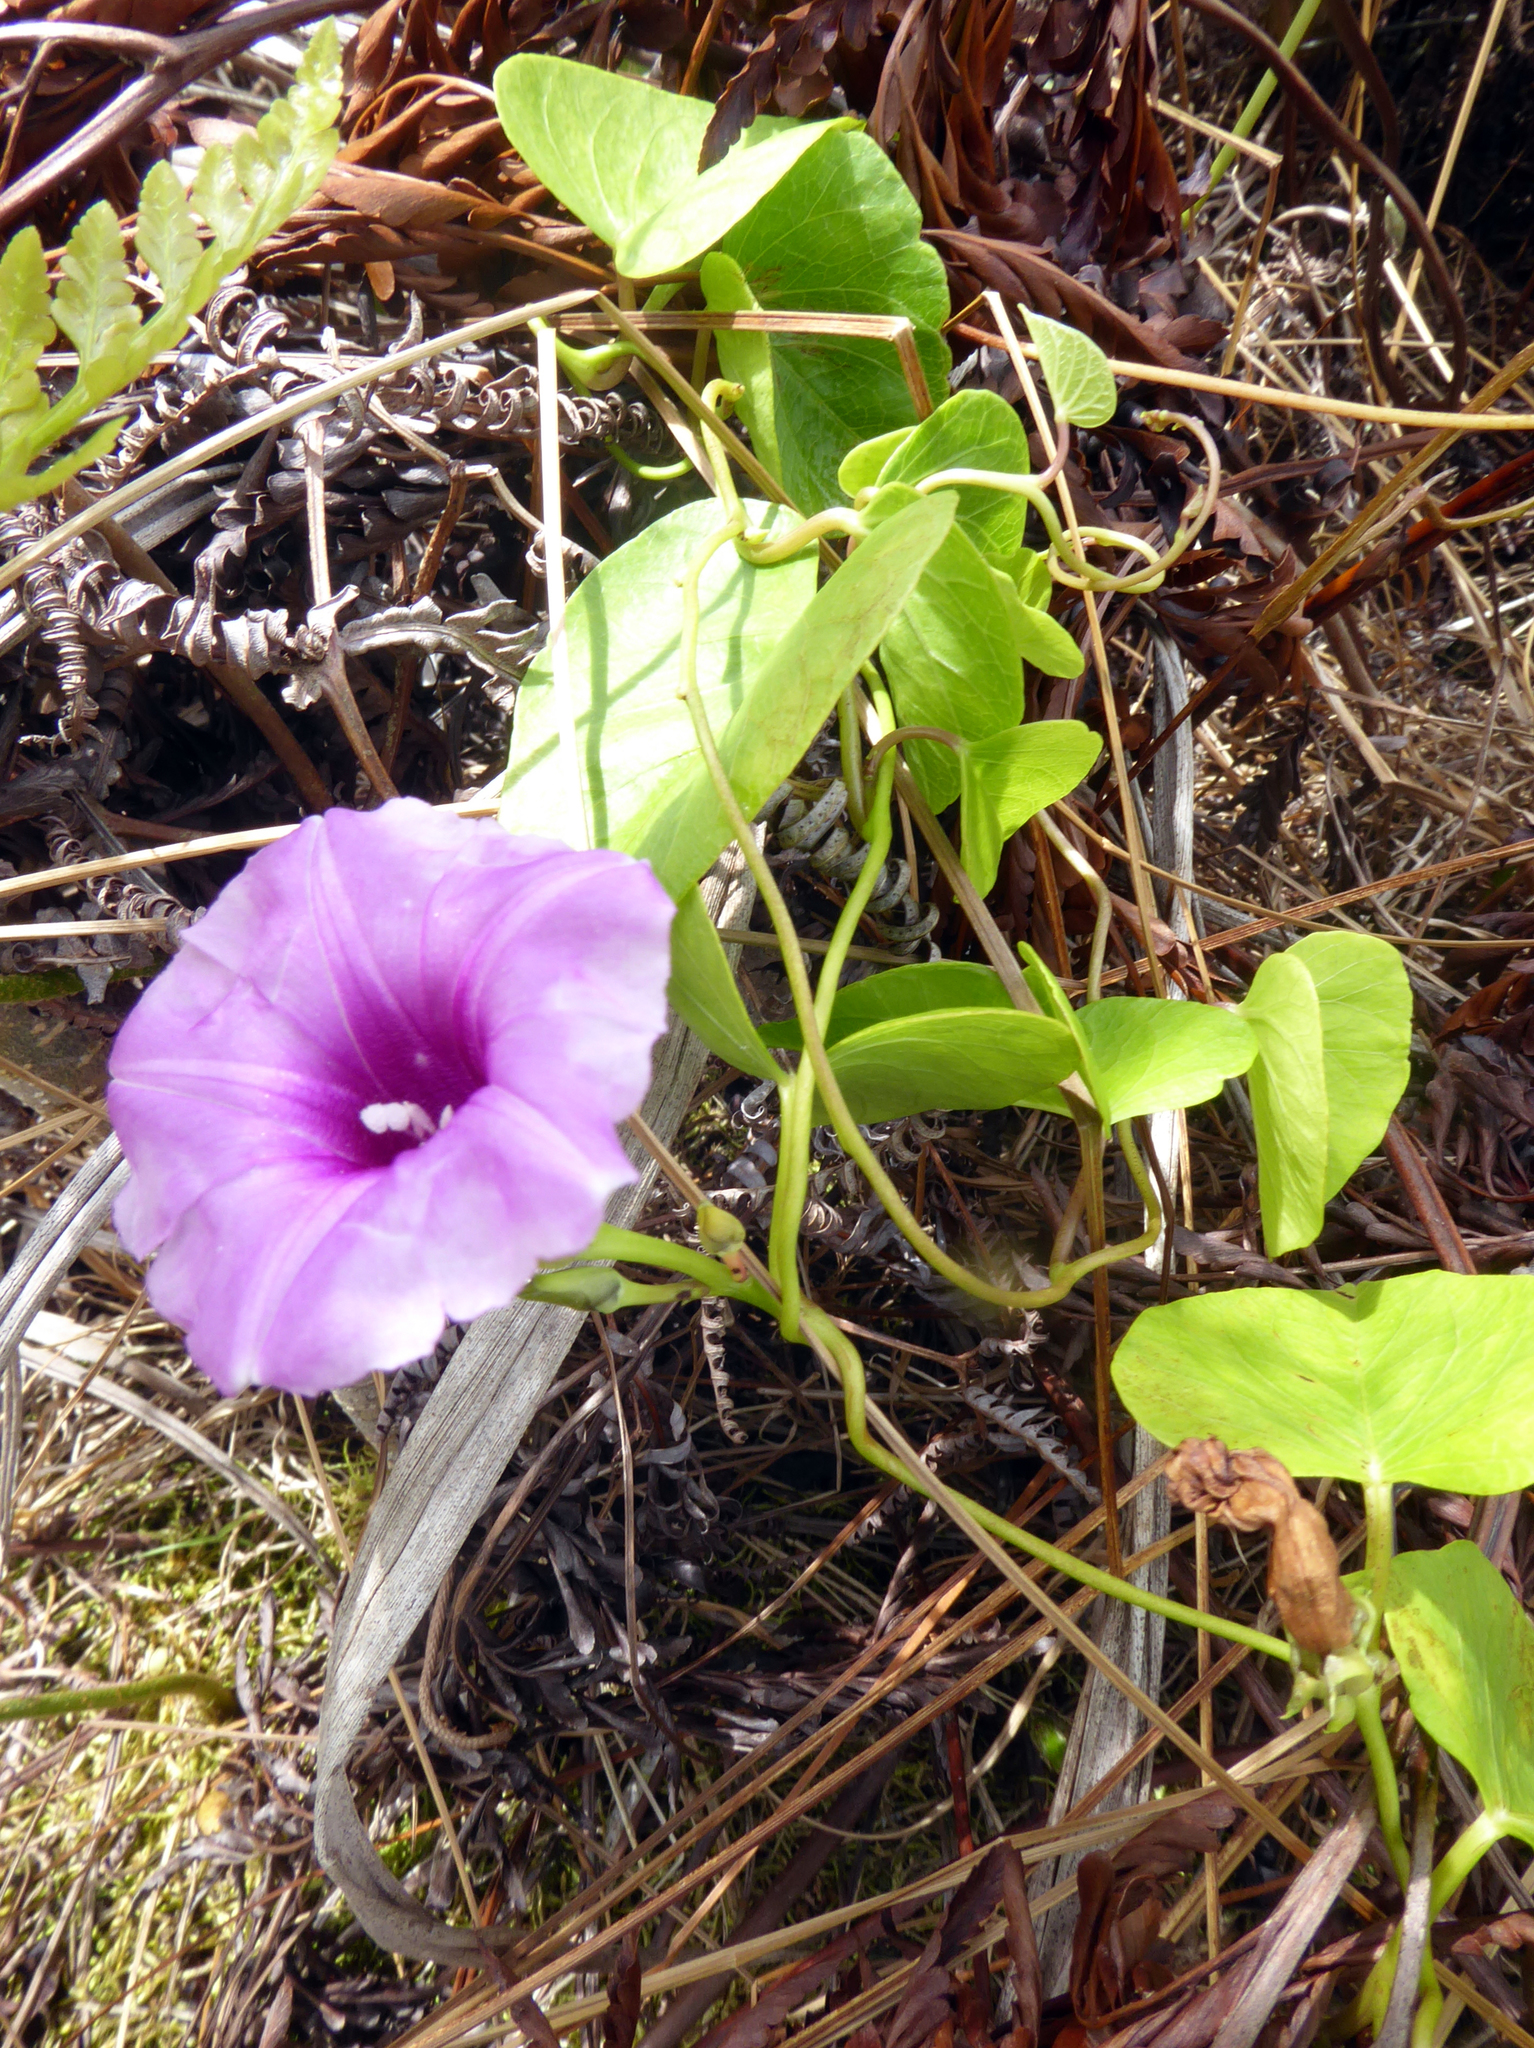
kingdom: Plantae
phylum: Tracheophyta
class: Magnoliopsida
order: Solanales
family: Convolvulaceae
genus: Ipomoea
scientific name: Ipomoea littoralis
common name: Coastal morning glory
